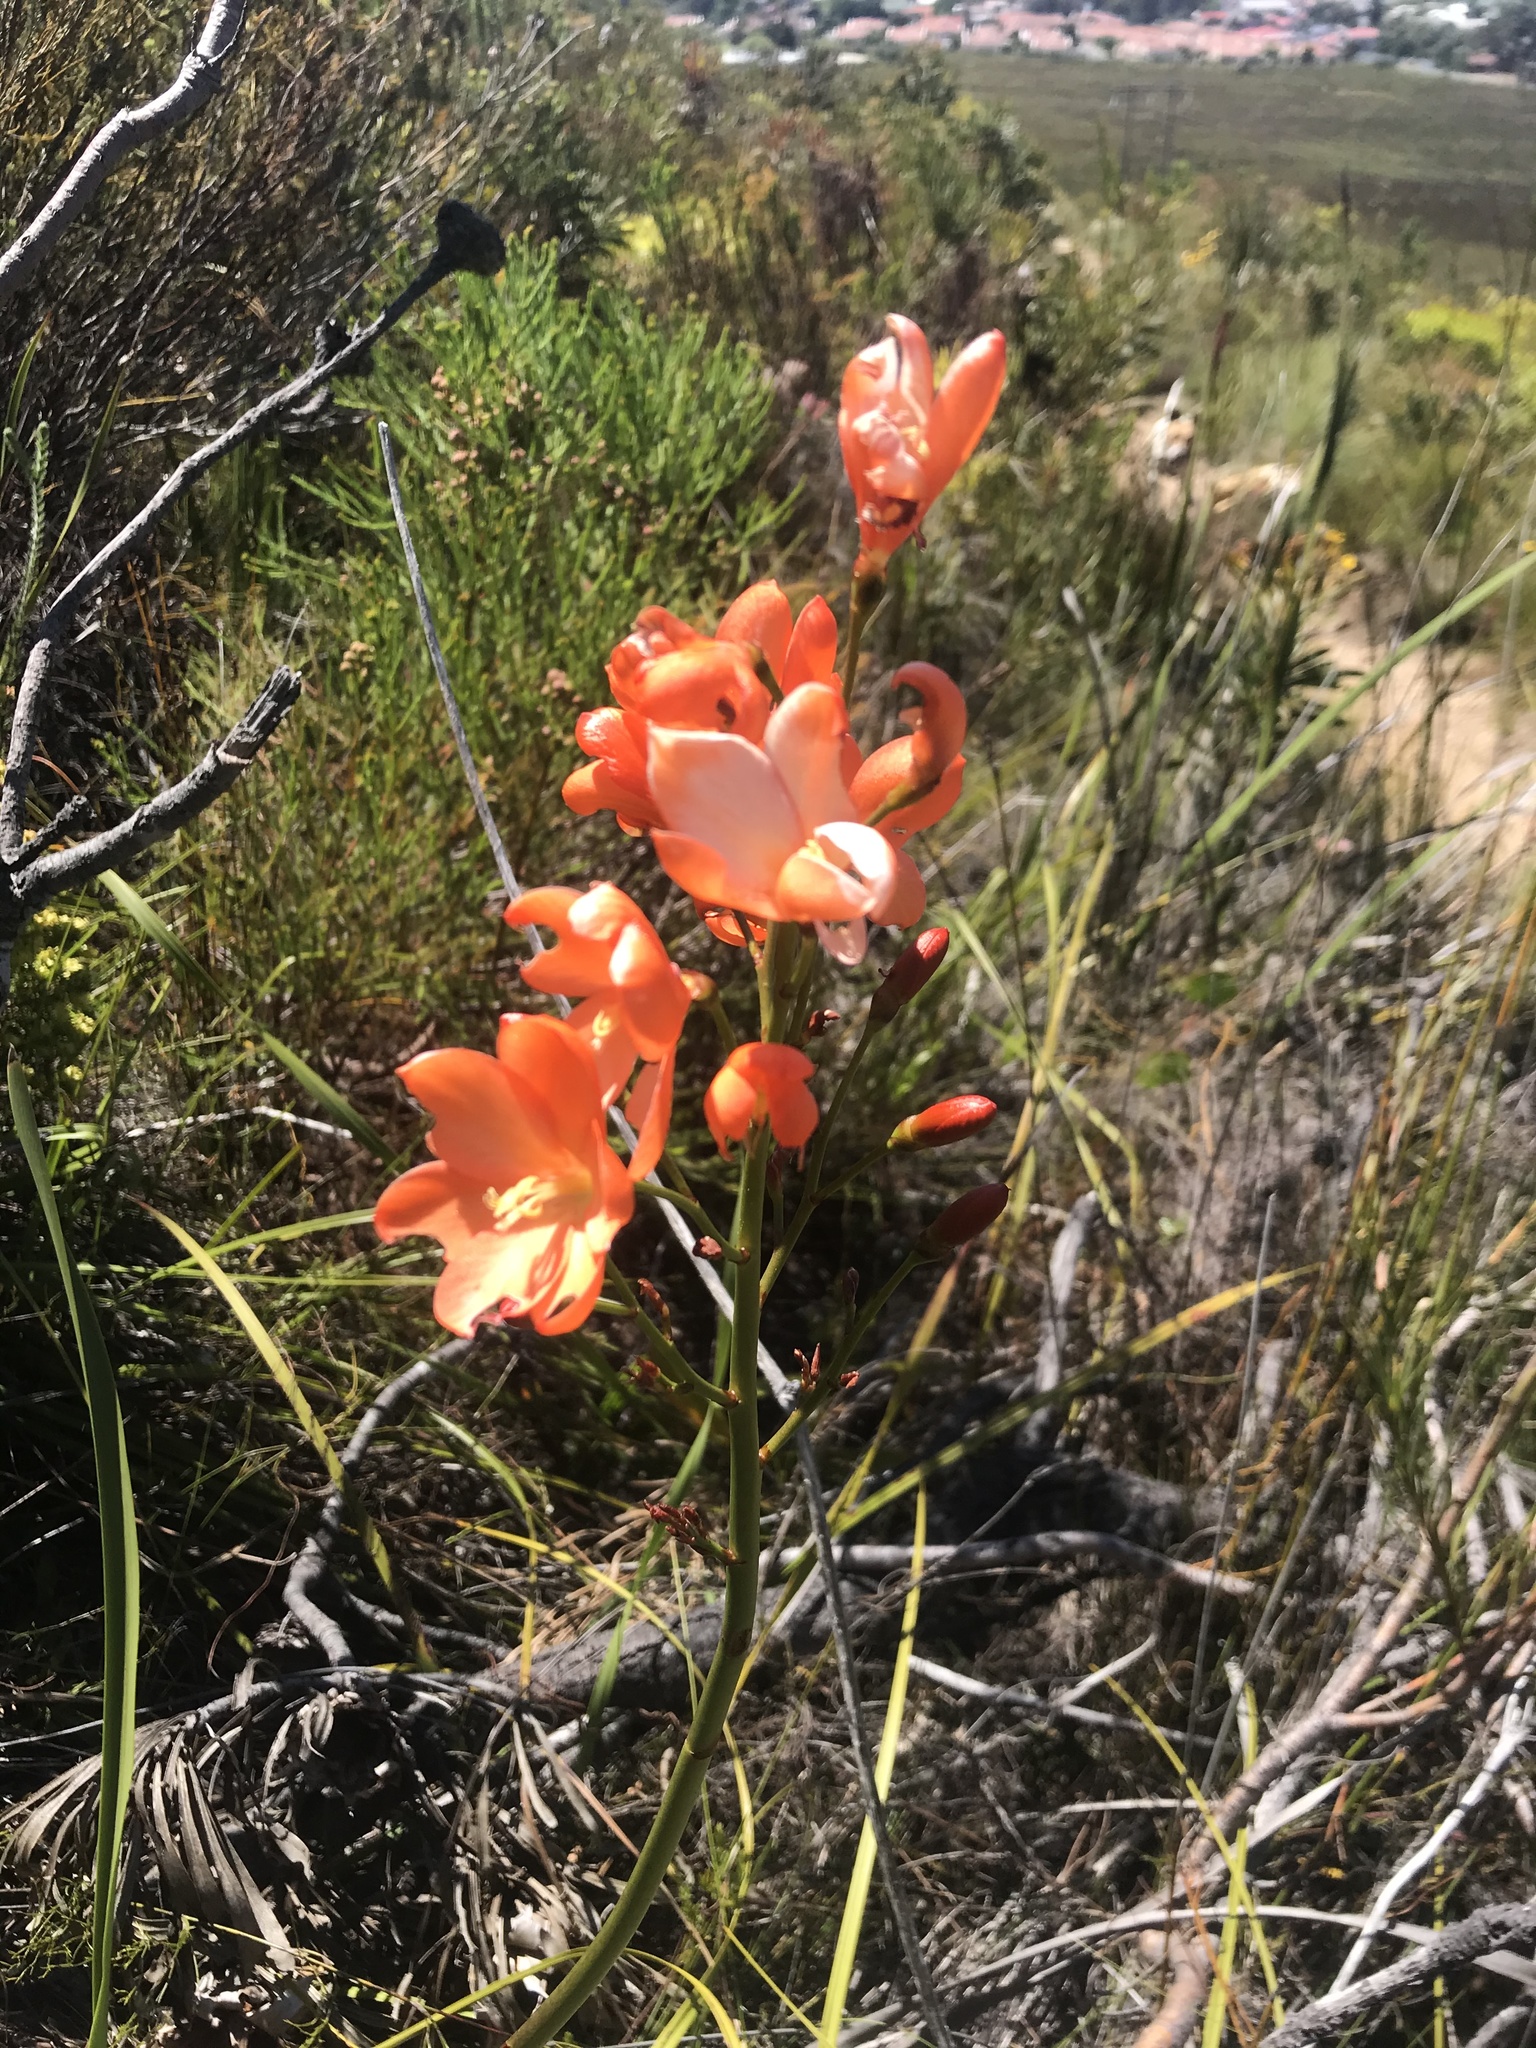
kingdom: Plantae
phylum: Tracheophyta
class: Liliopsida
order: Asparagales
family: Iridaceae
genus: Pillansia
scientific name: Pillansia templemannii
